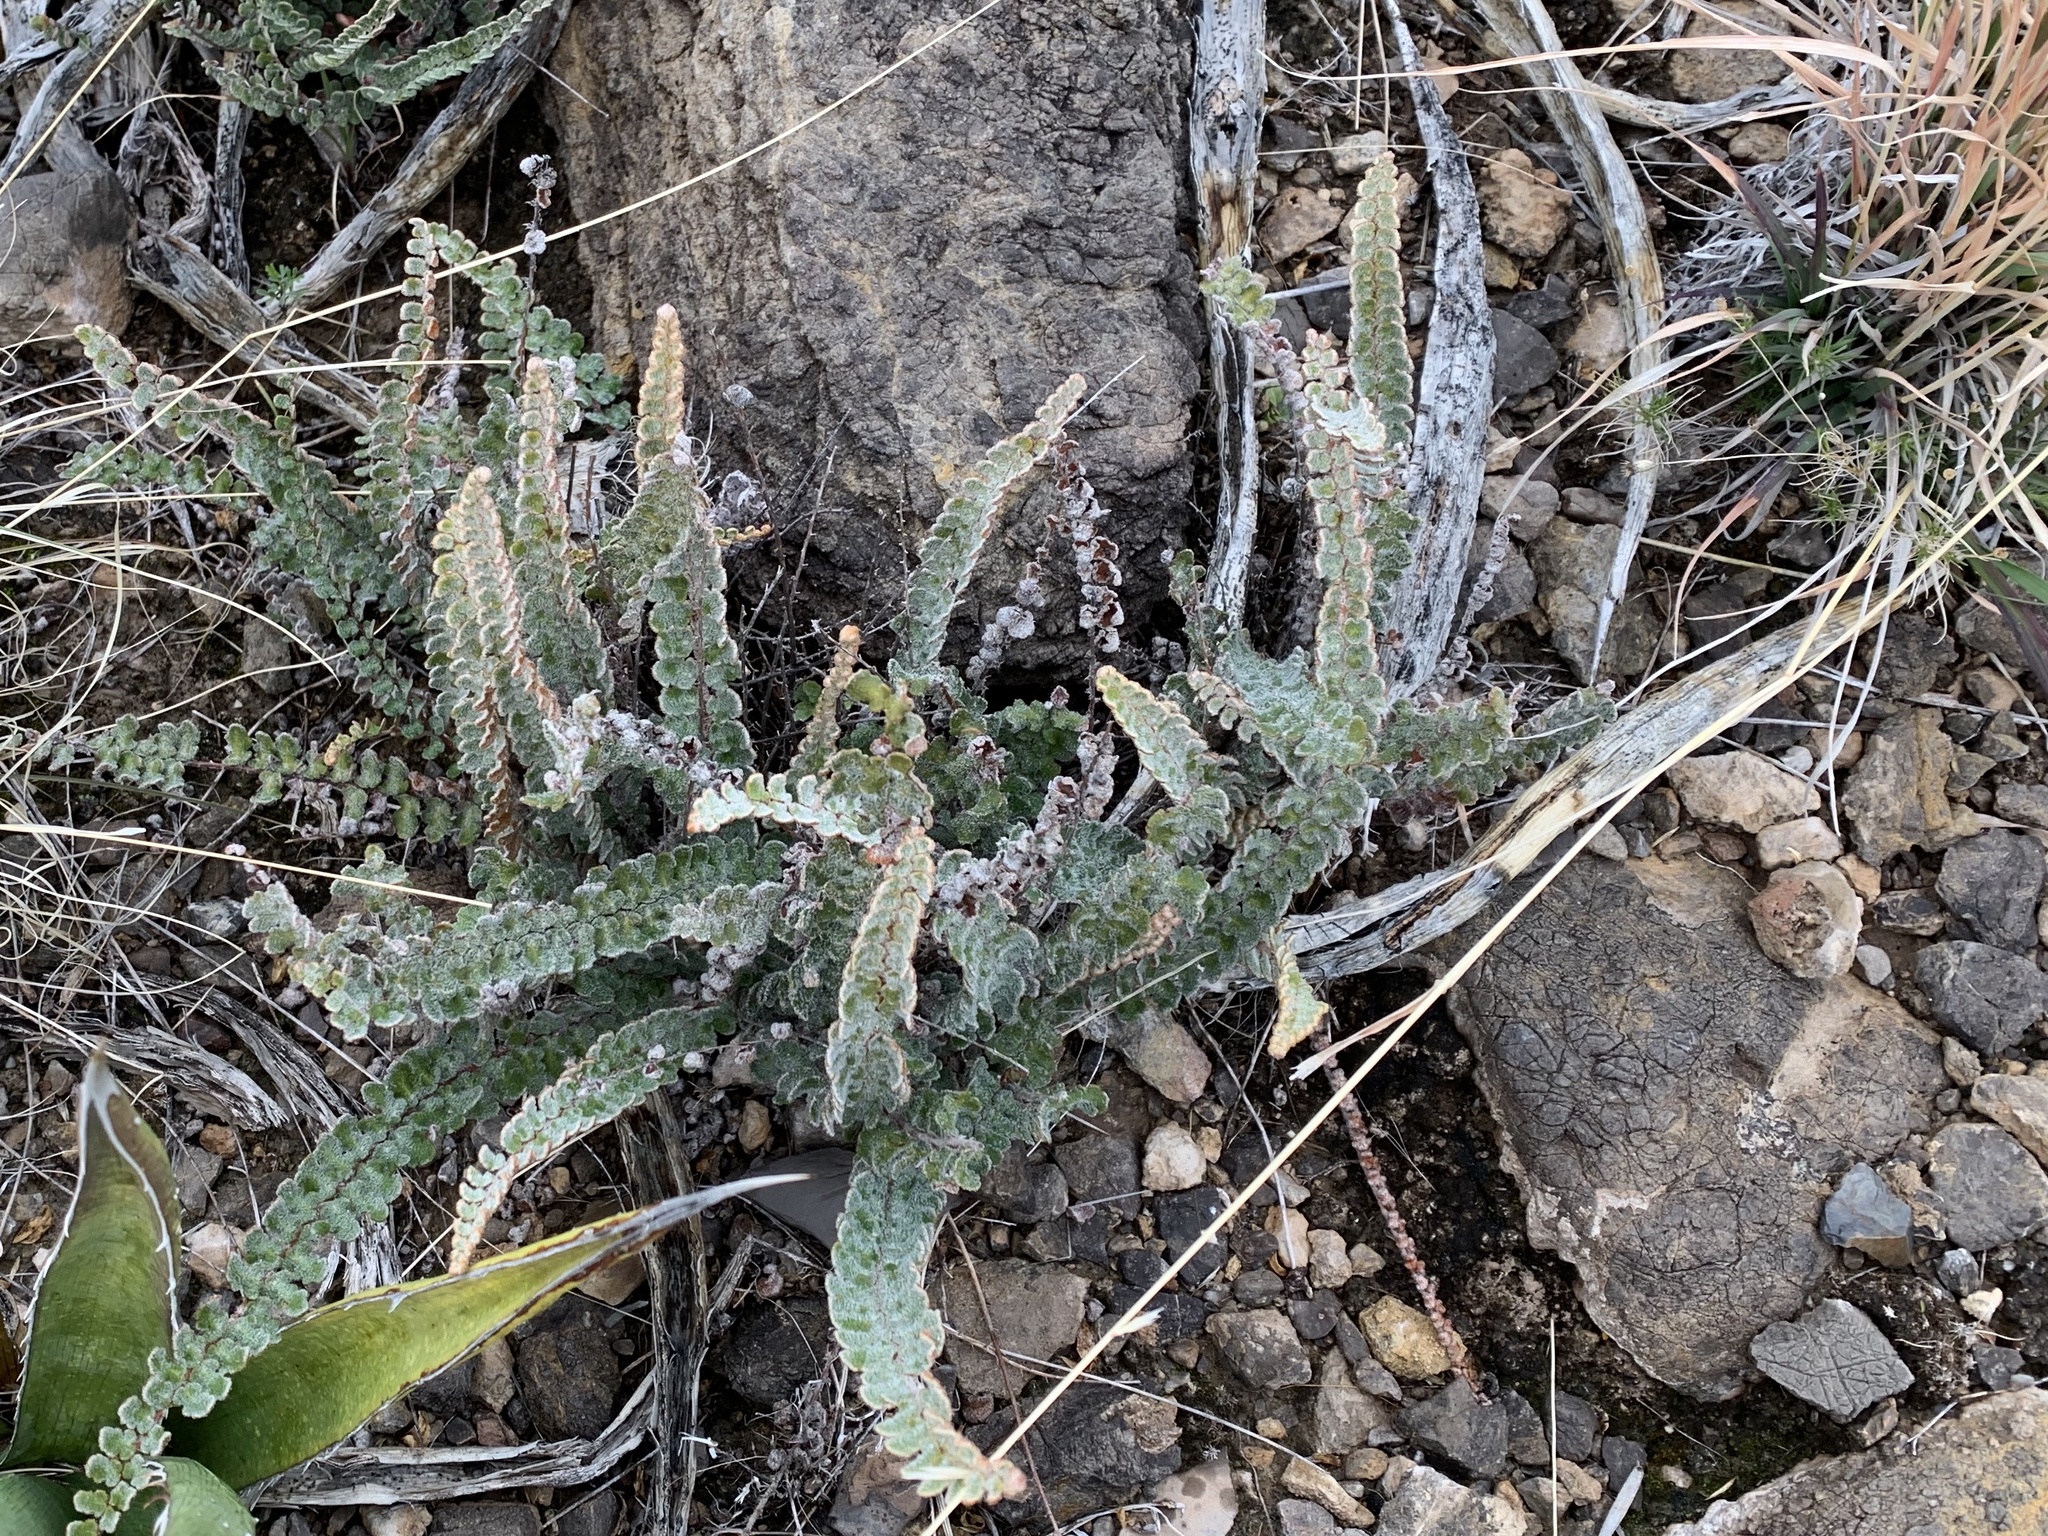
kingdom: Plantae
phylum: Tracheophyta
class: Polypodiopsida
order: Polypodiales
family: Pteridaceae
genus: Astrolepis
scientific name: Astrolepis integerrima
